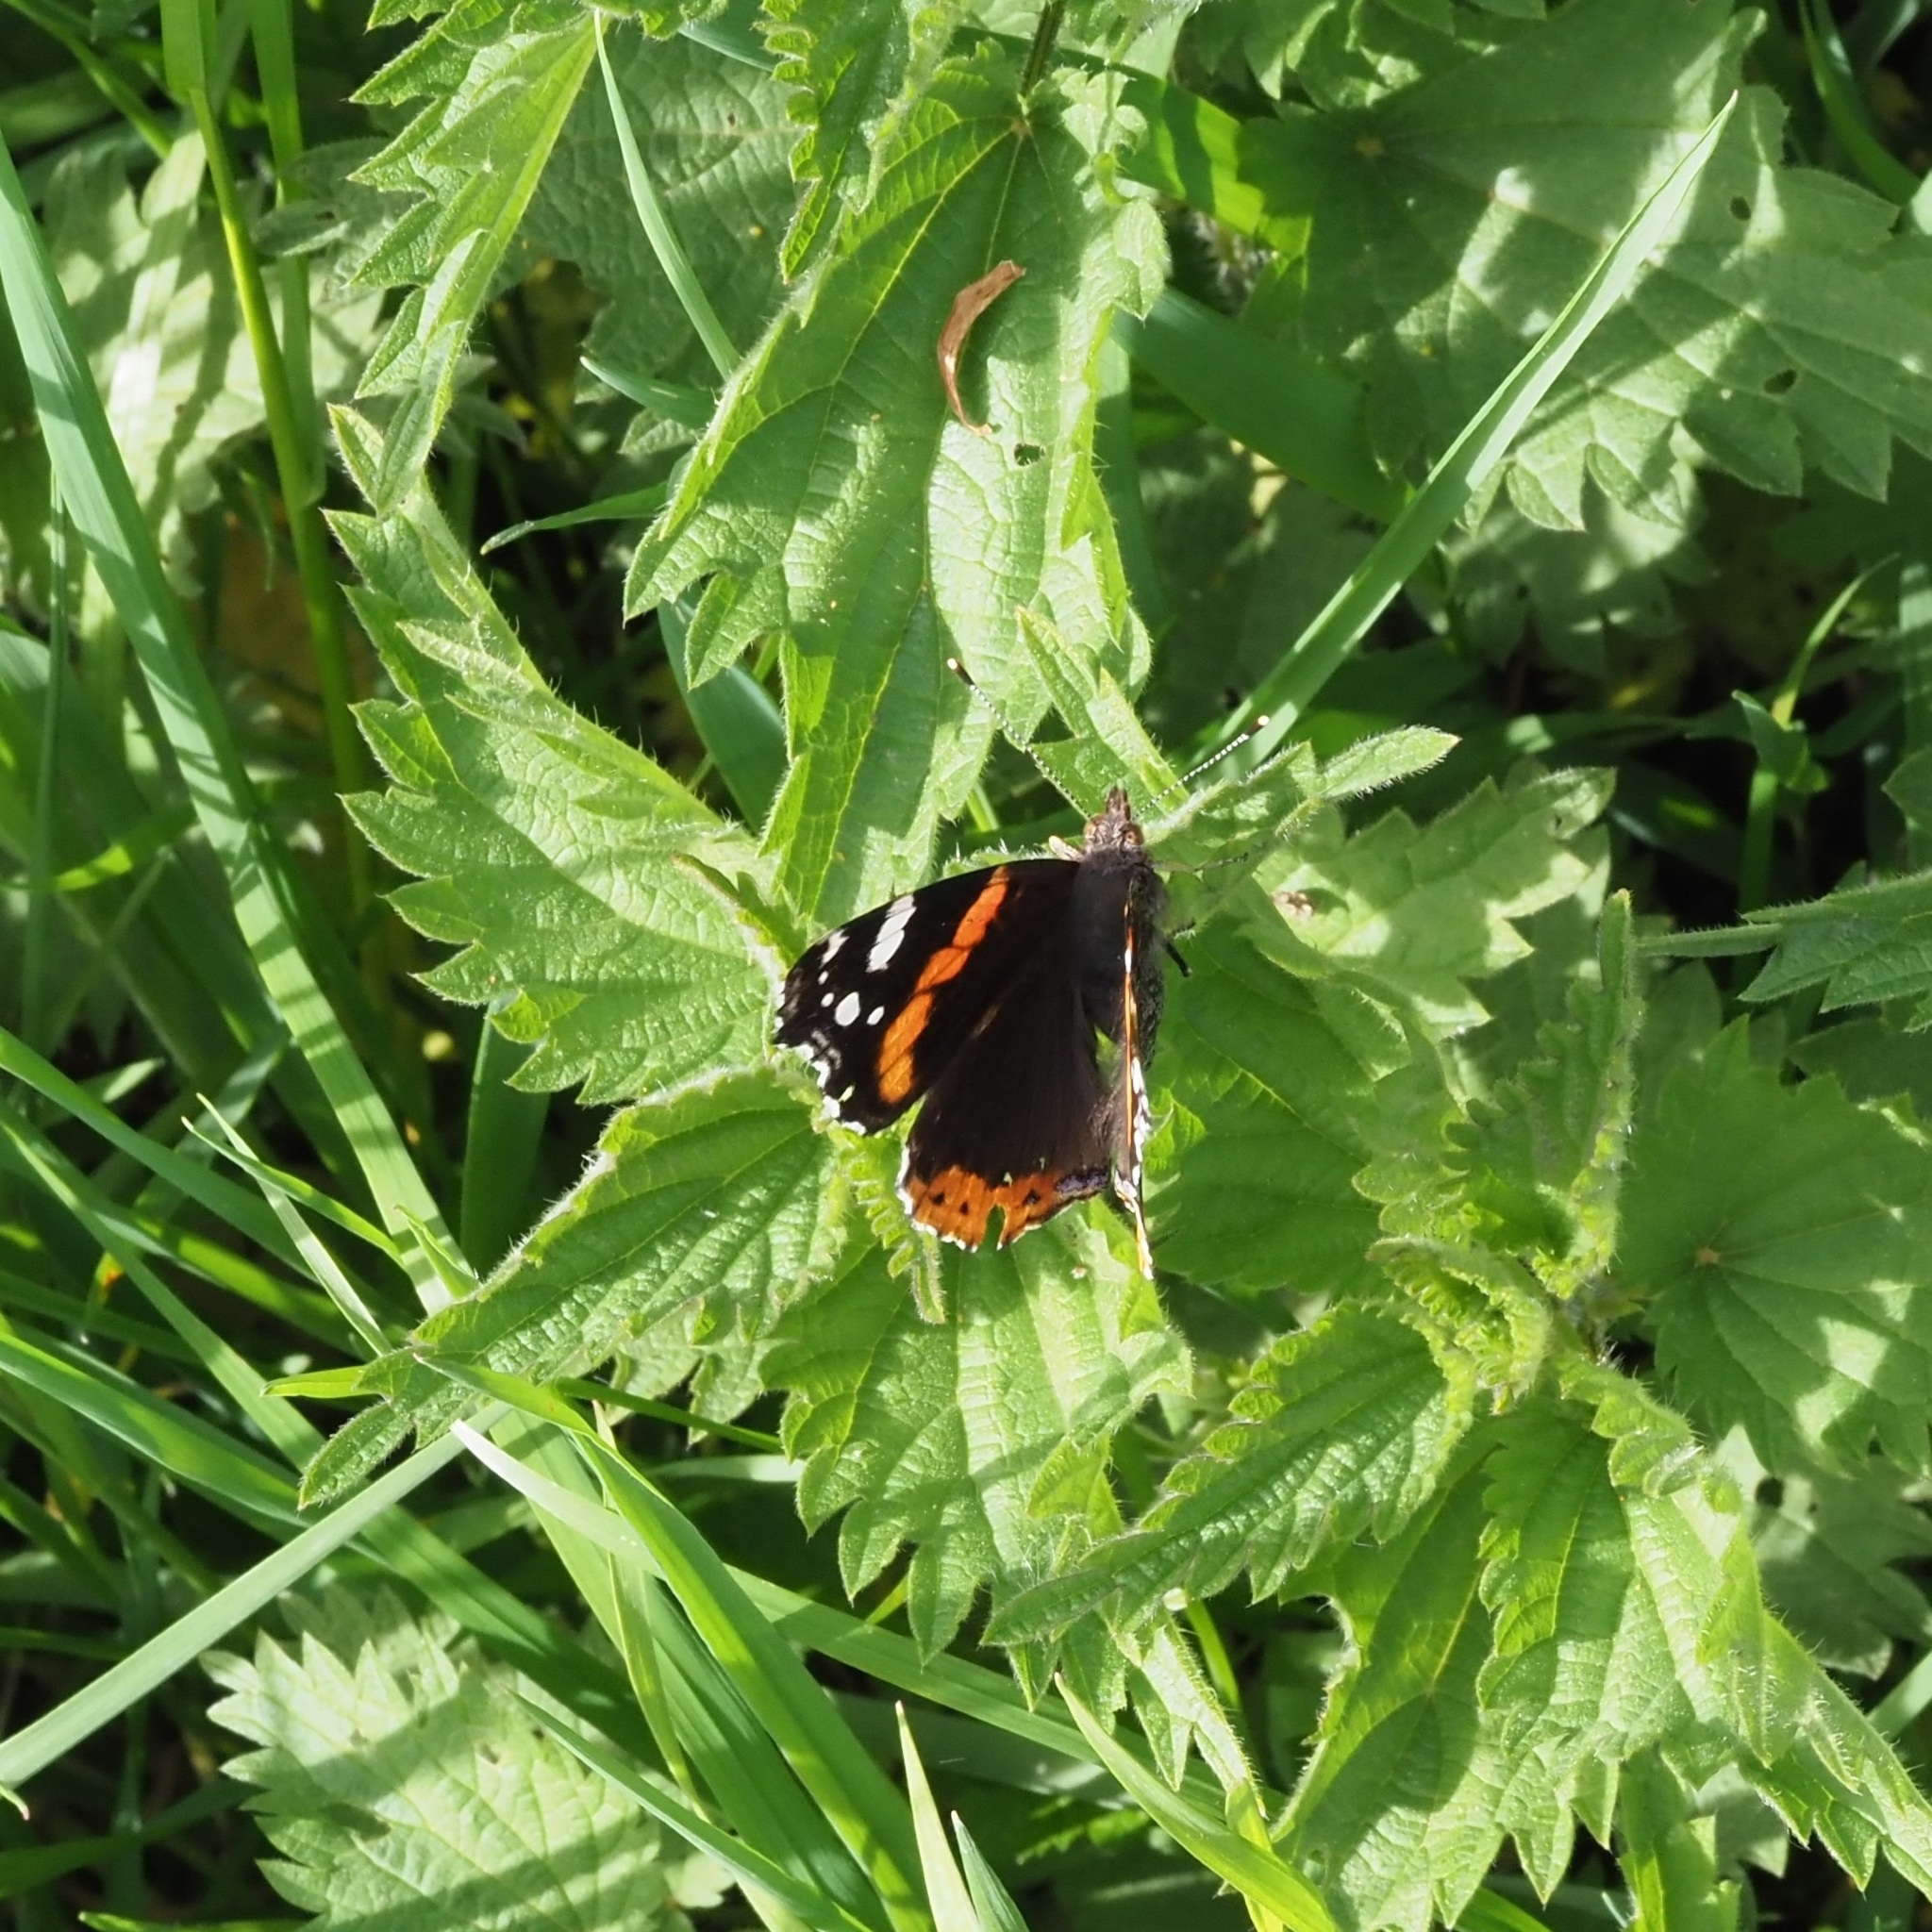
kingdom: Animalia
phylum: Arthropoda
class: Insecta
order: Lepidoptera
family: Nymphalidae
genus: Vanessa
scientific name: Vanessa atalanta
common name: Red admiral
